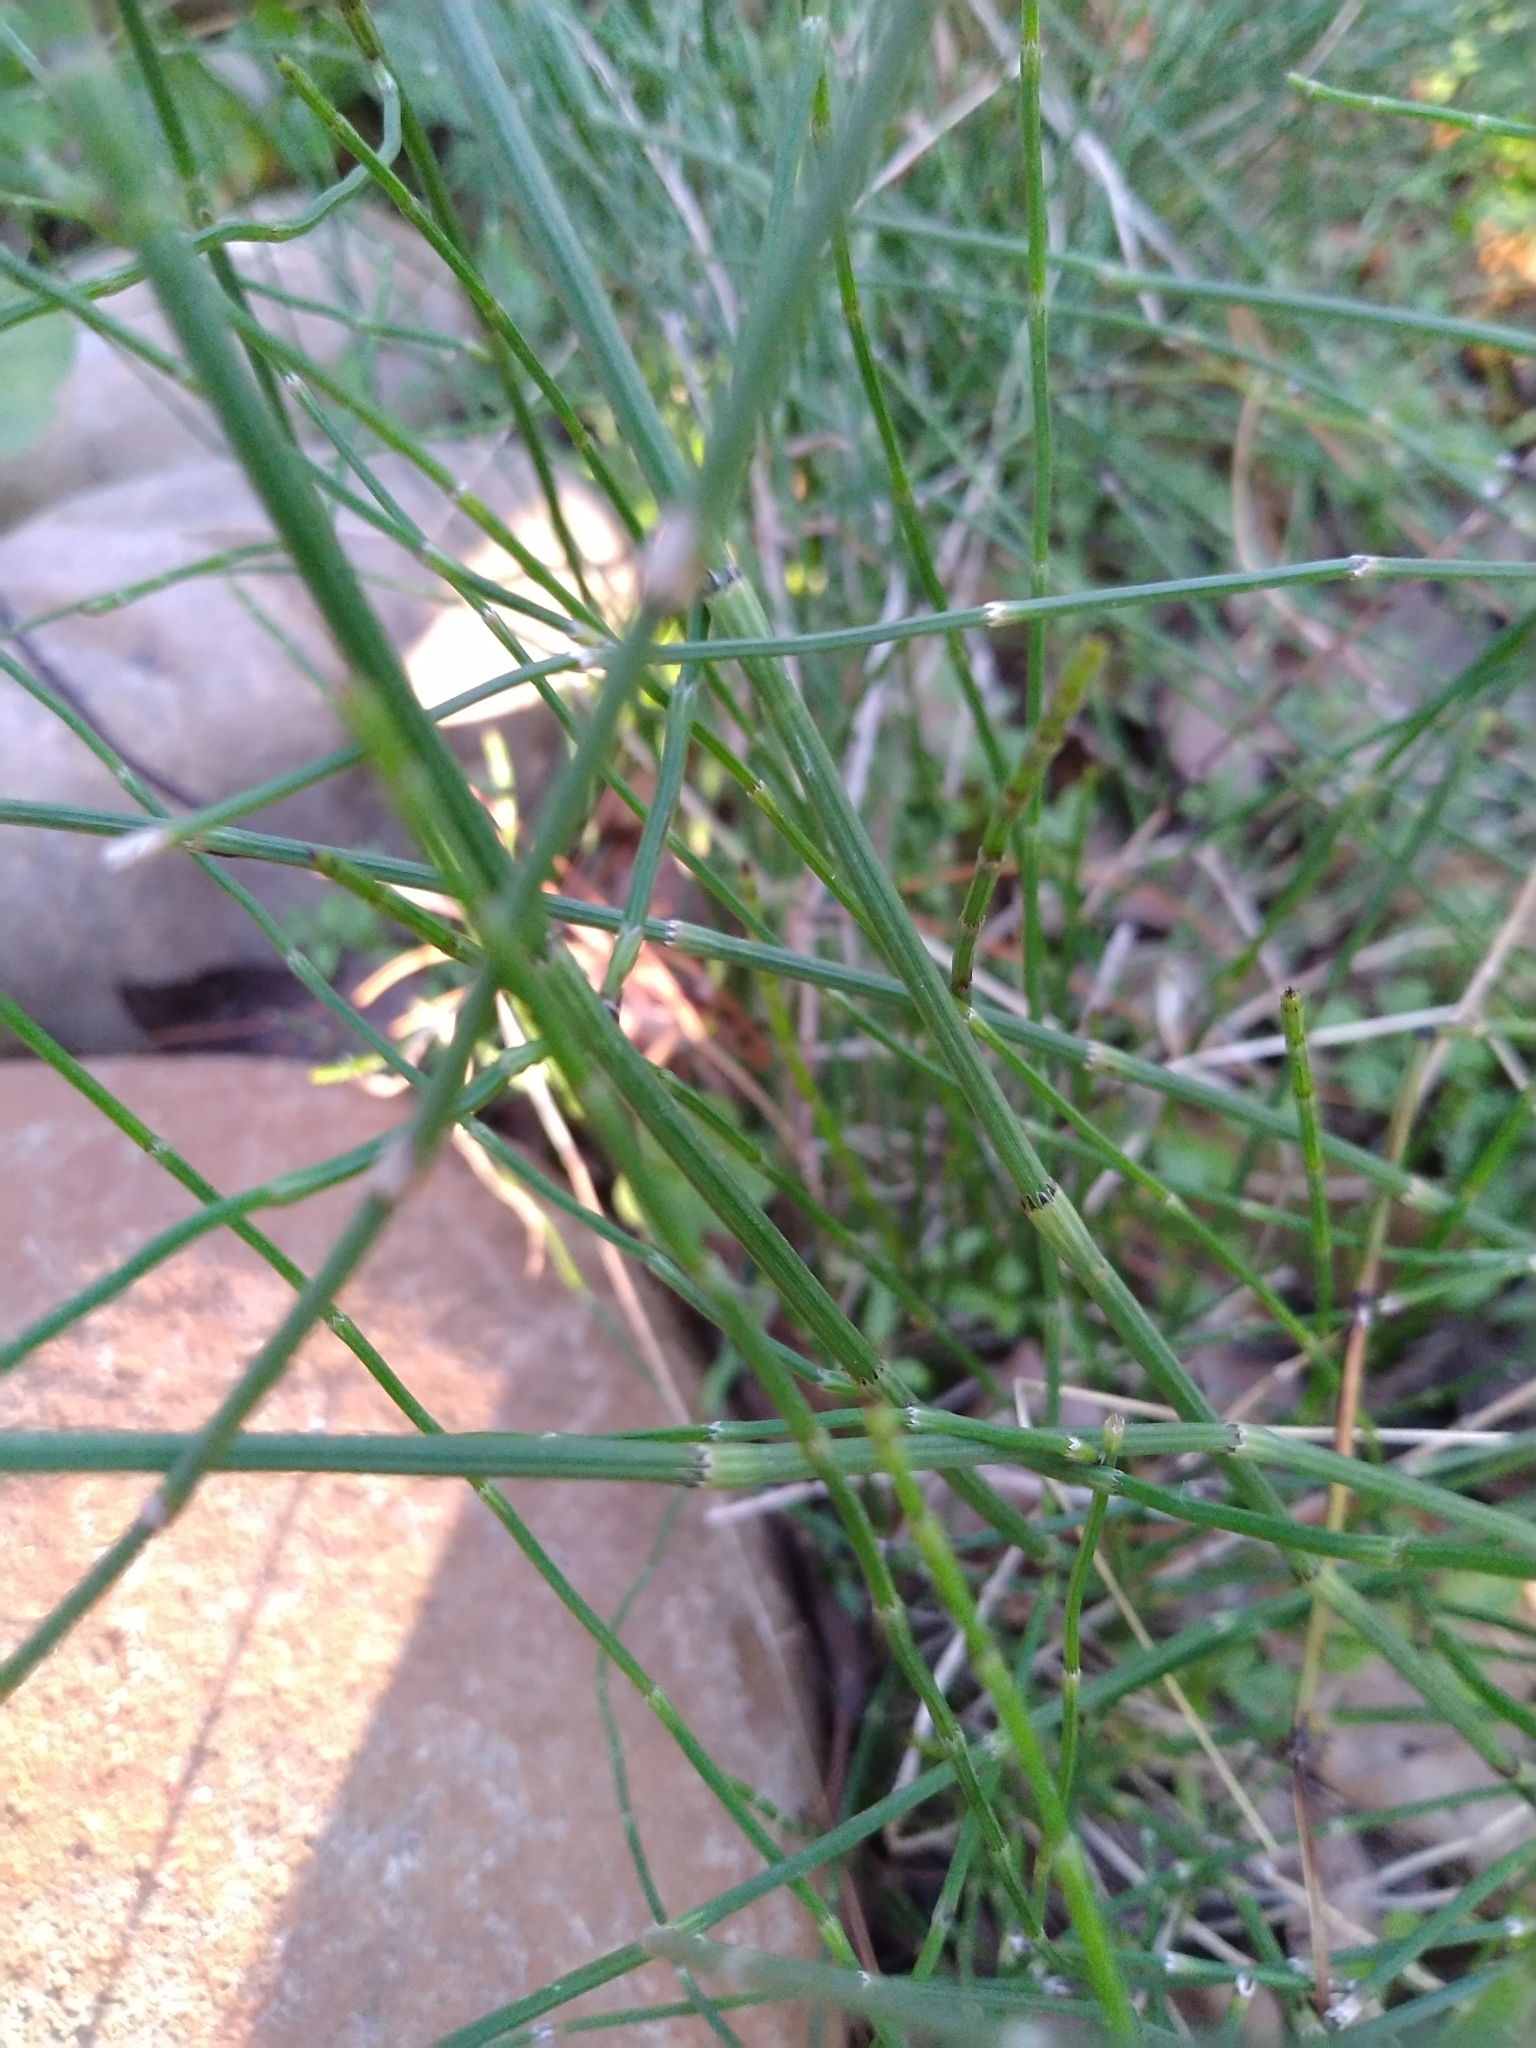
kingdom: Plantae
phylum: Tracheophyta
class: Polypodiopsida
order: Equisetales
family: Equisetaceae
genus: Equisetum
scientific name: Equisetum ramosissimum
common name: Branched horsetail
